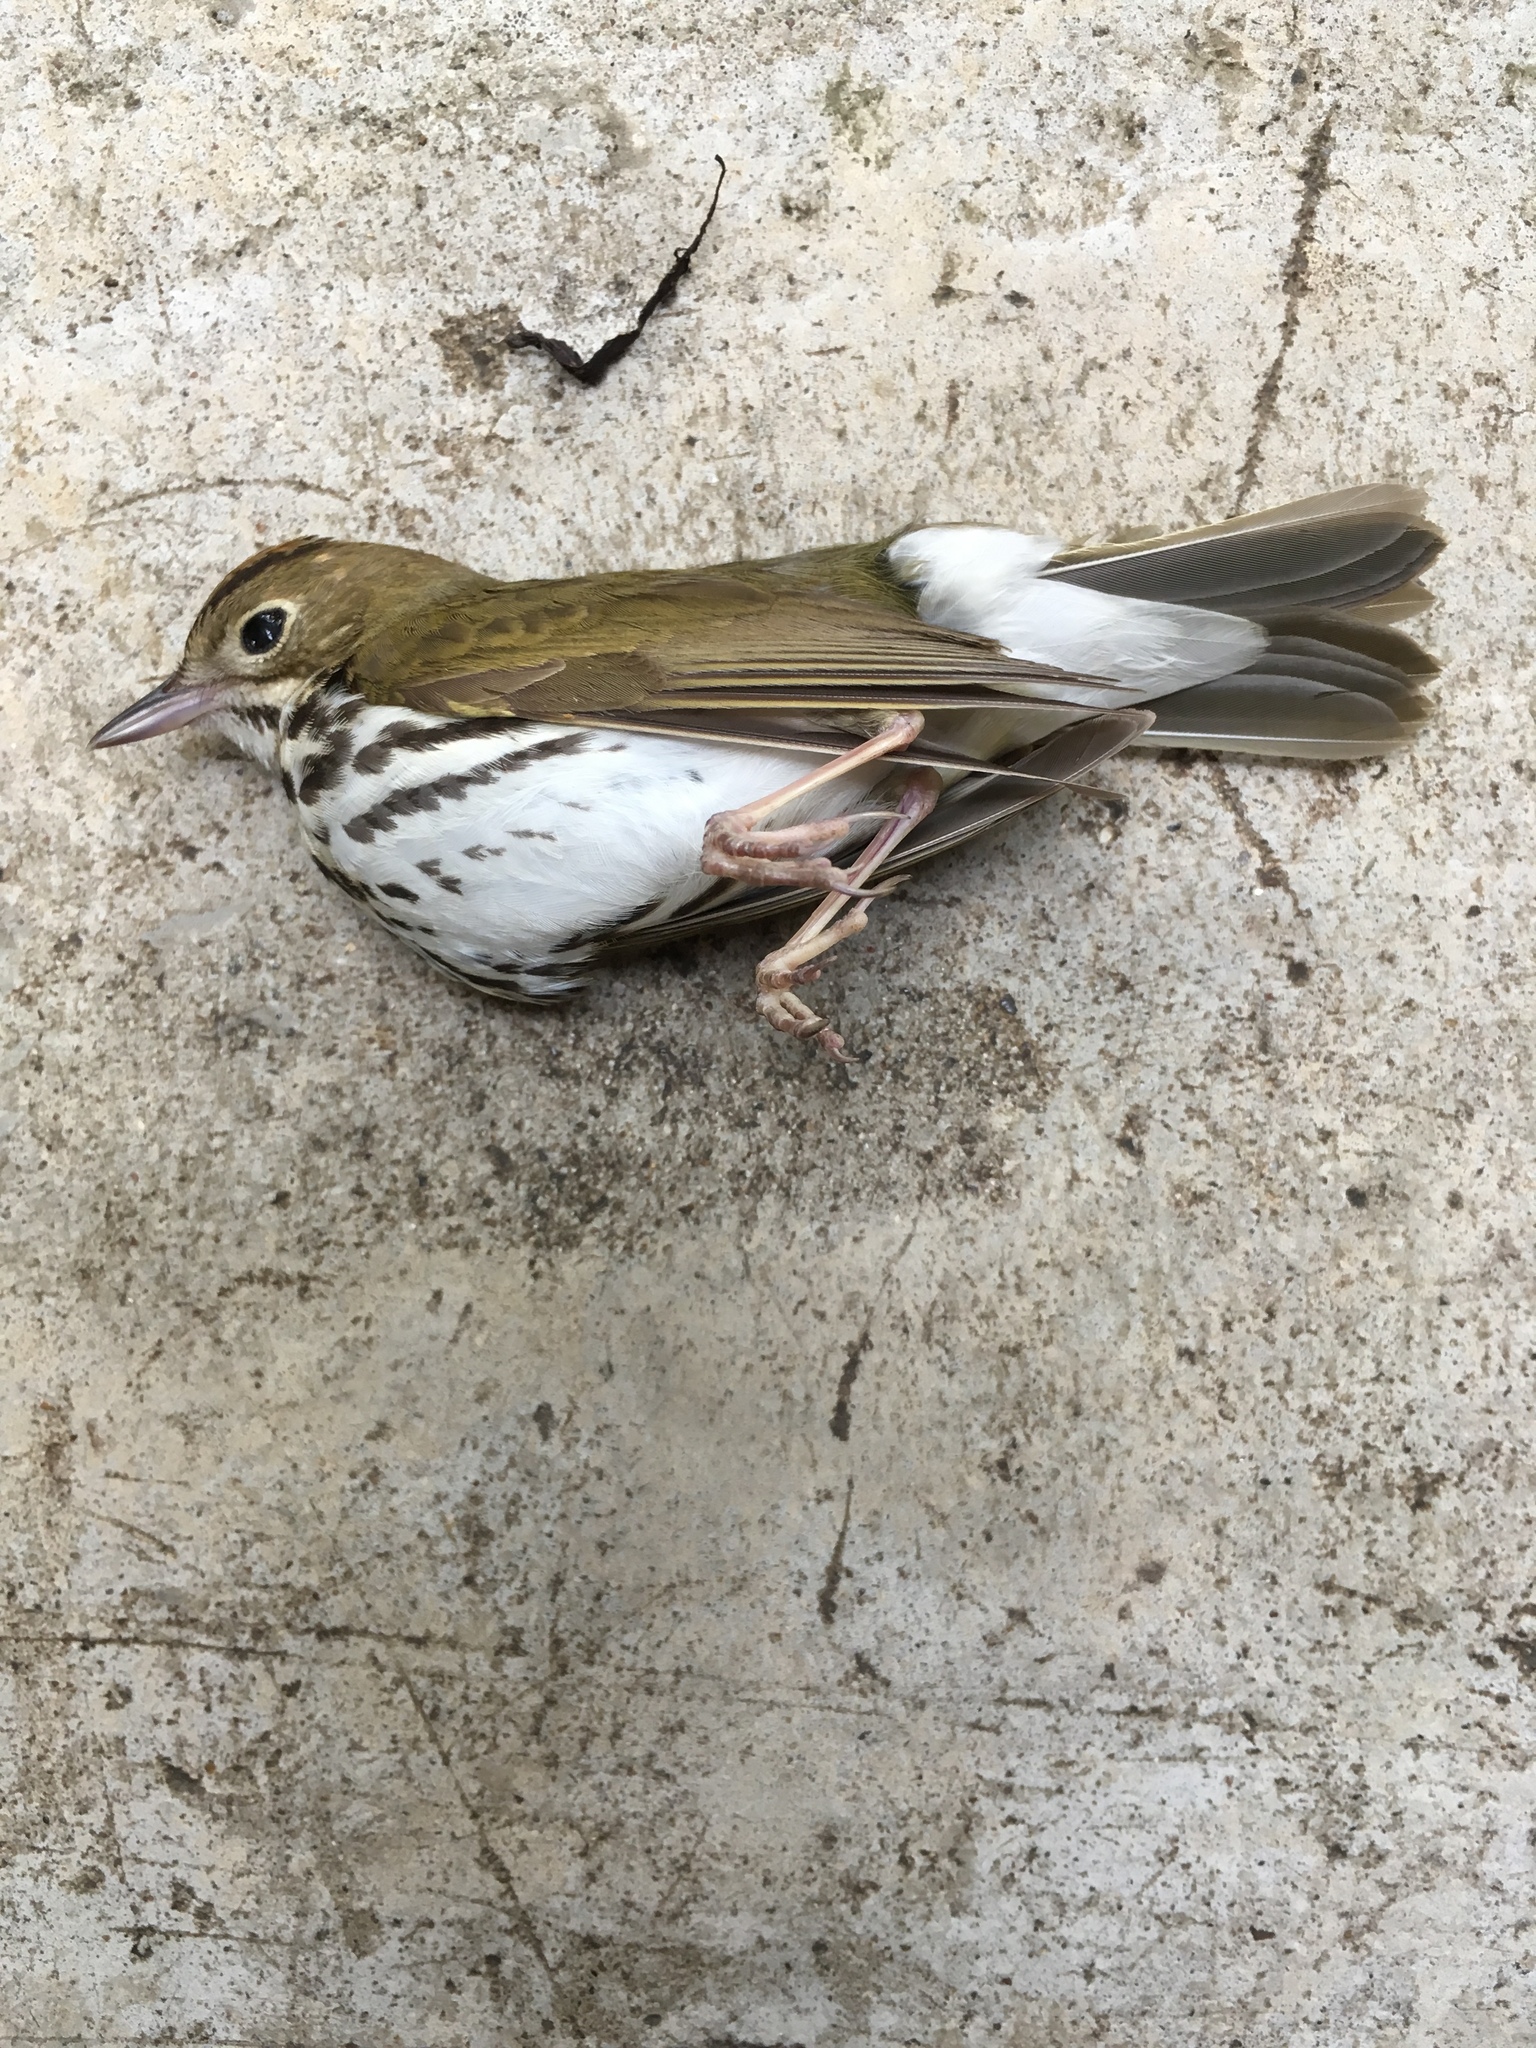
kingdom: Animalia
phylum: Chordata
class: Aves
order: Passeriformes
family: Parulidae
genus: Seiurus
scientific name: Seiurus aurocapilla
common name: Ovenbird
